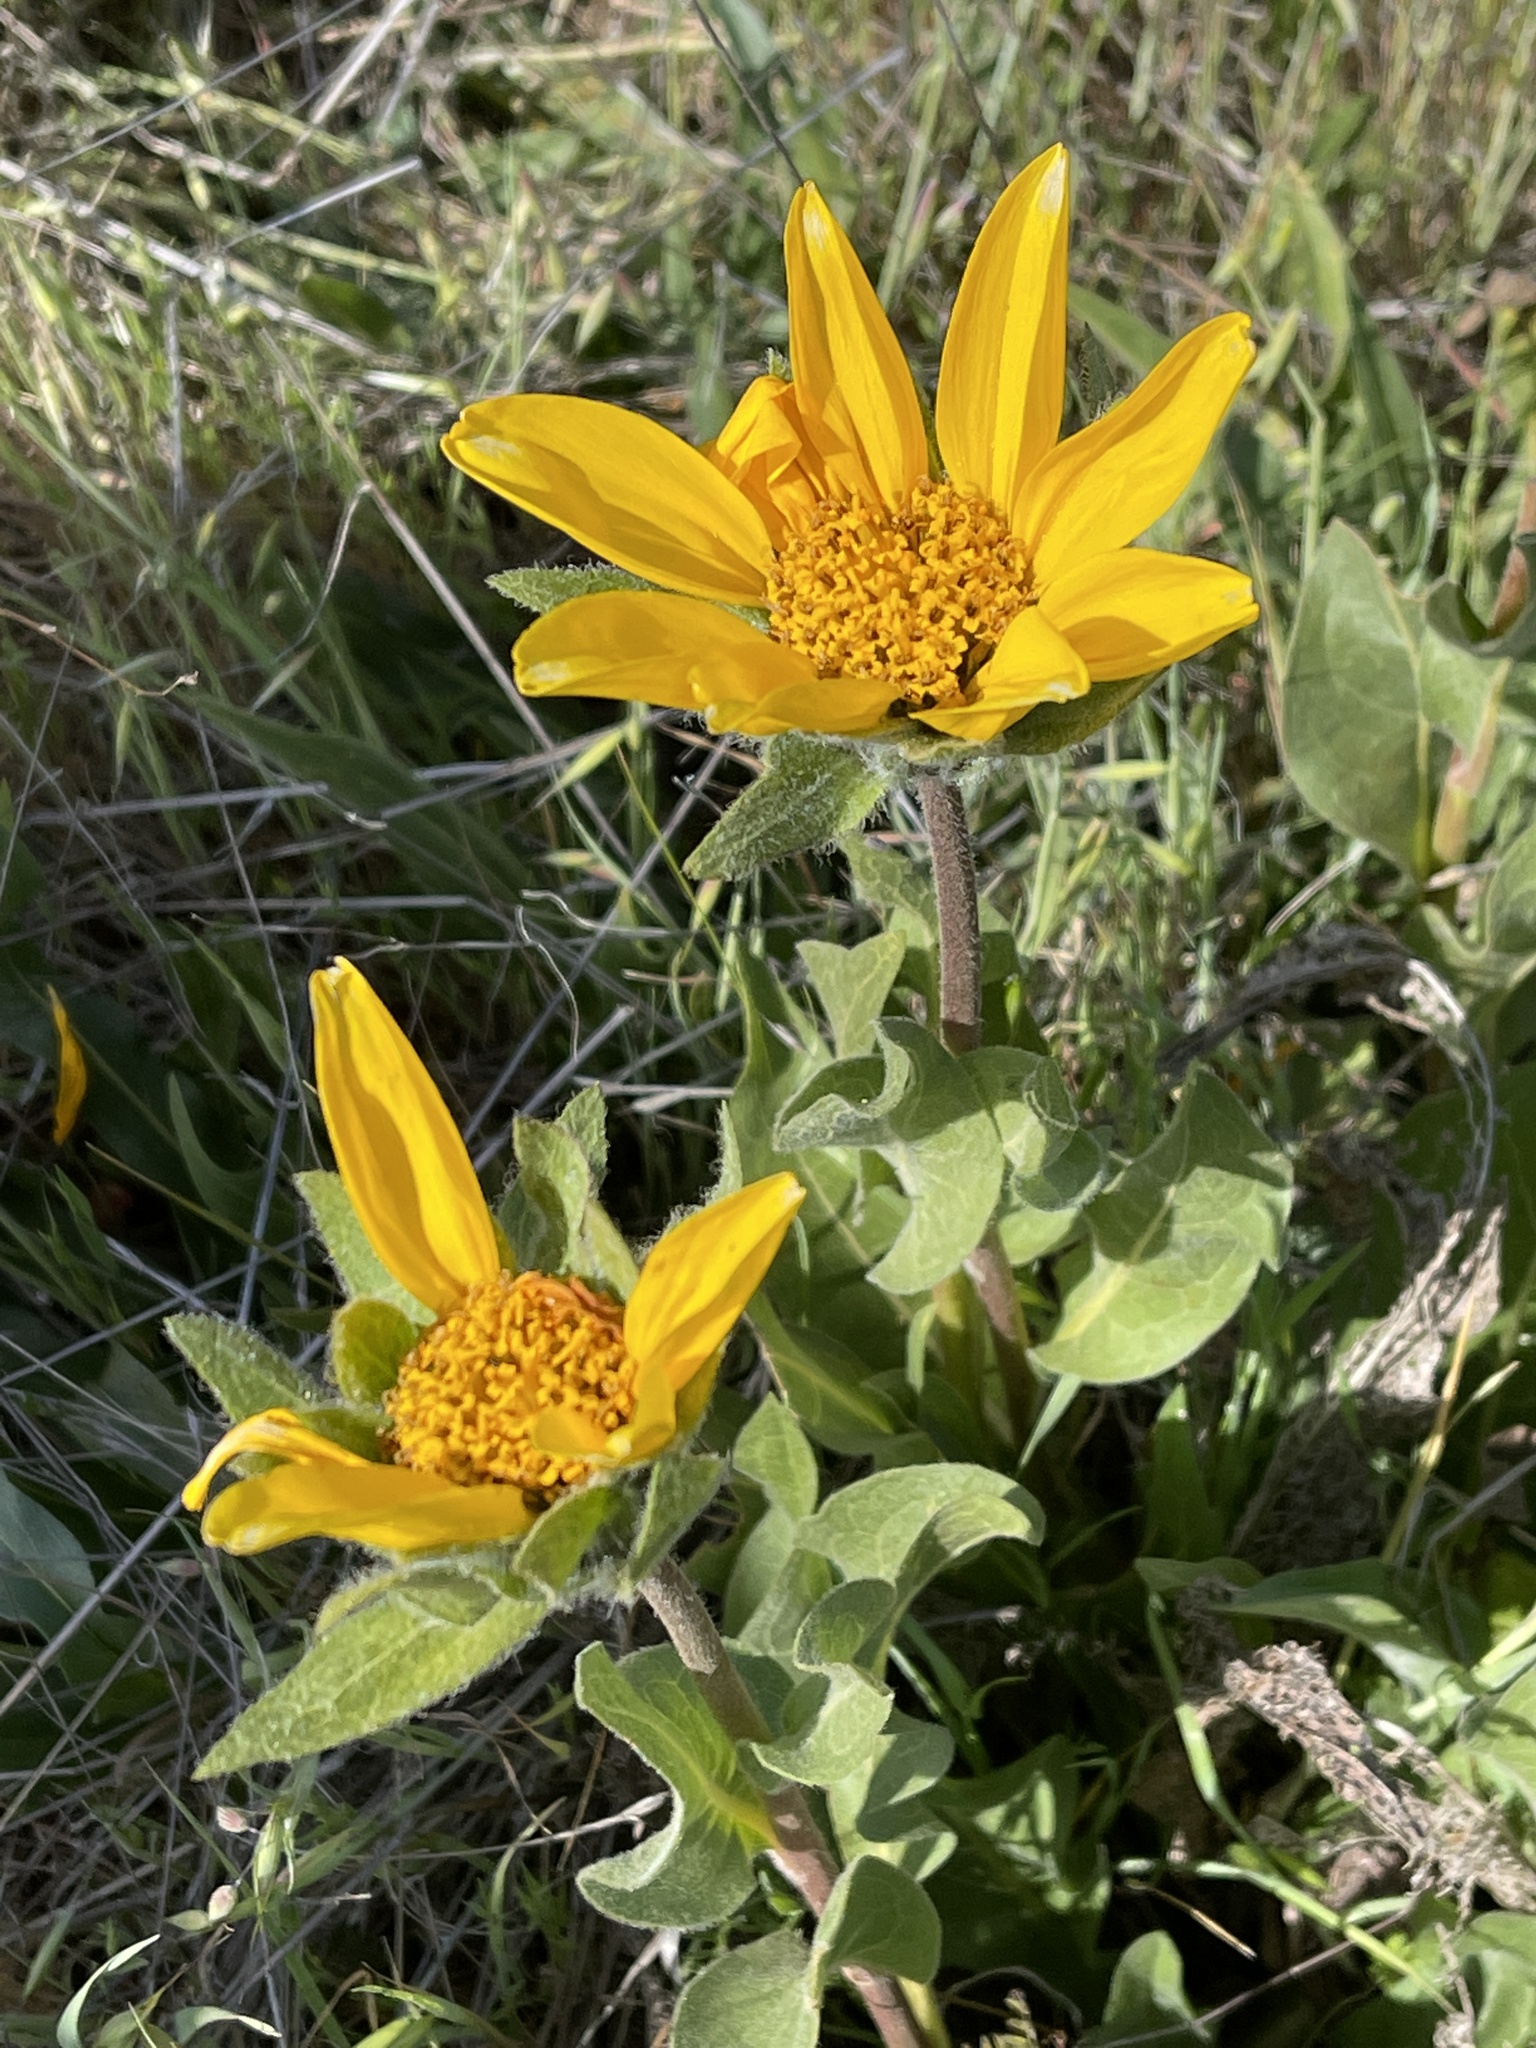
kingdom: Plantae
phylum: Tracheophyta
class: Magnoliopsida
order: Asterales
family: Asteraceae
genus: Wyethia
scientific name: Wyethia glabra
